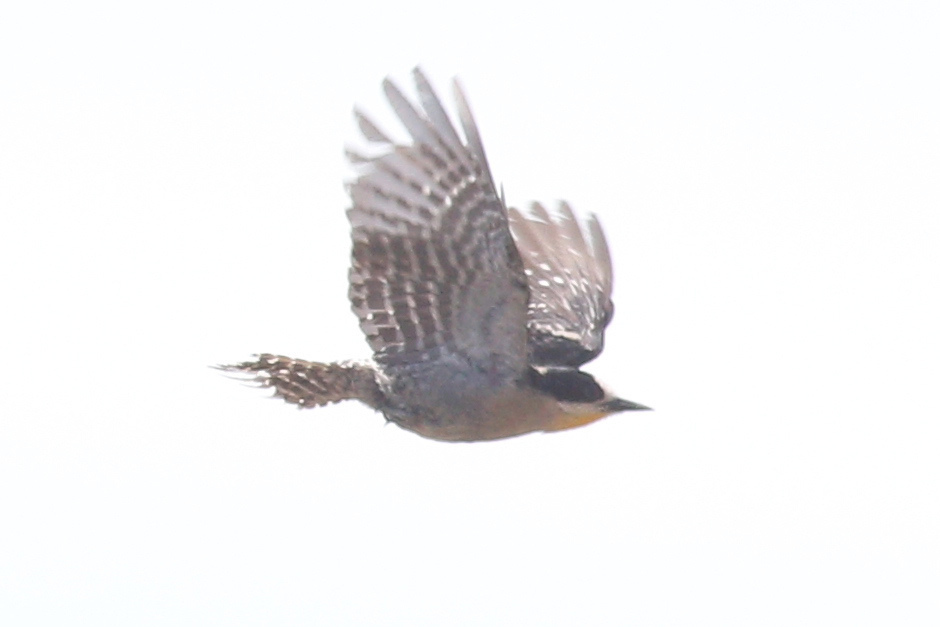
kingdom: Animalia
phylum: Chordata
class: Aves
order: Piciformes
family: Picidae
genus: Melanerpes
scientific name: Melanerpes cactorum
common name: White-fronted woodpecker
